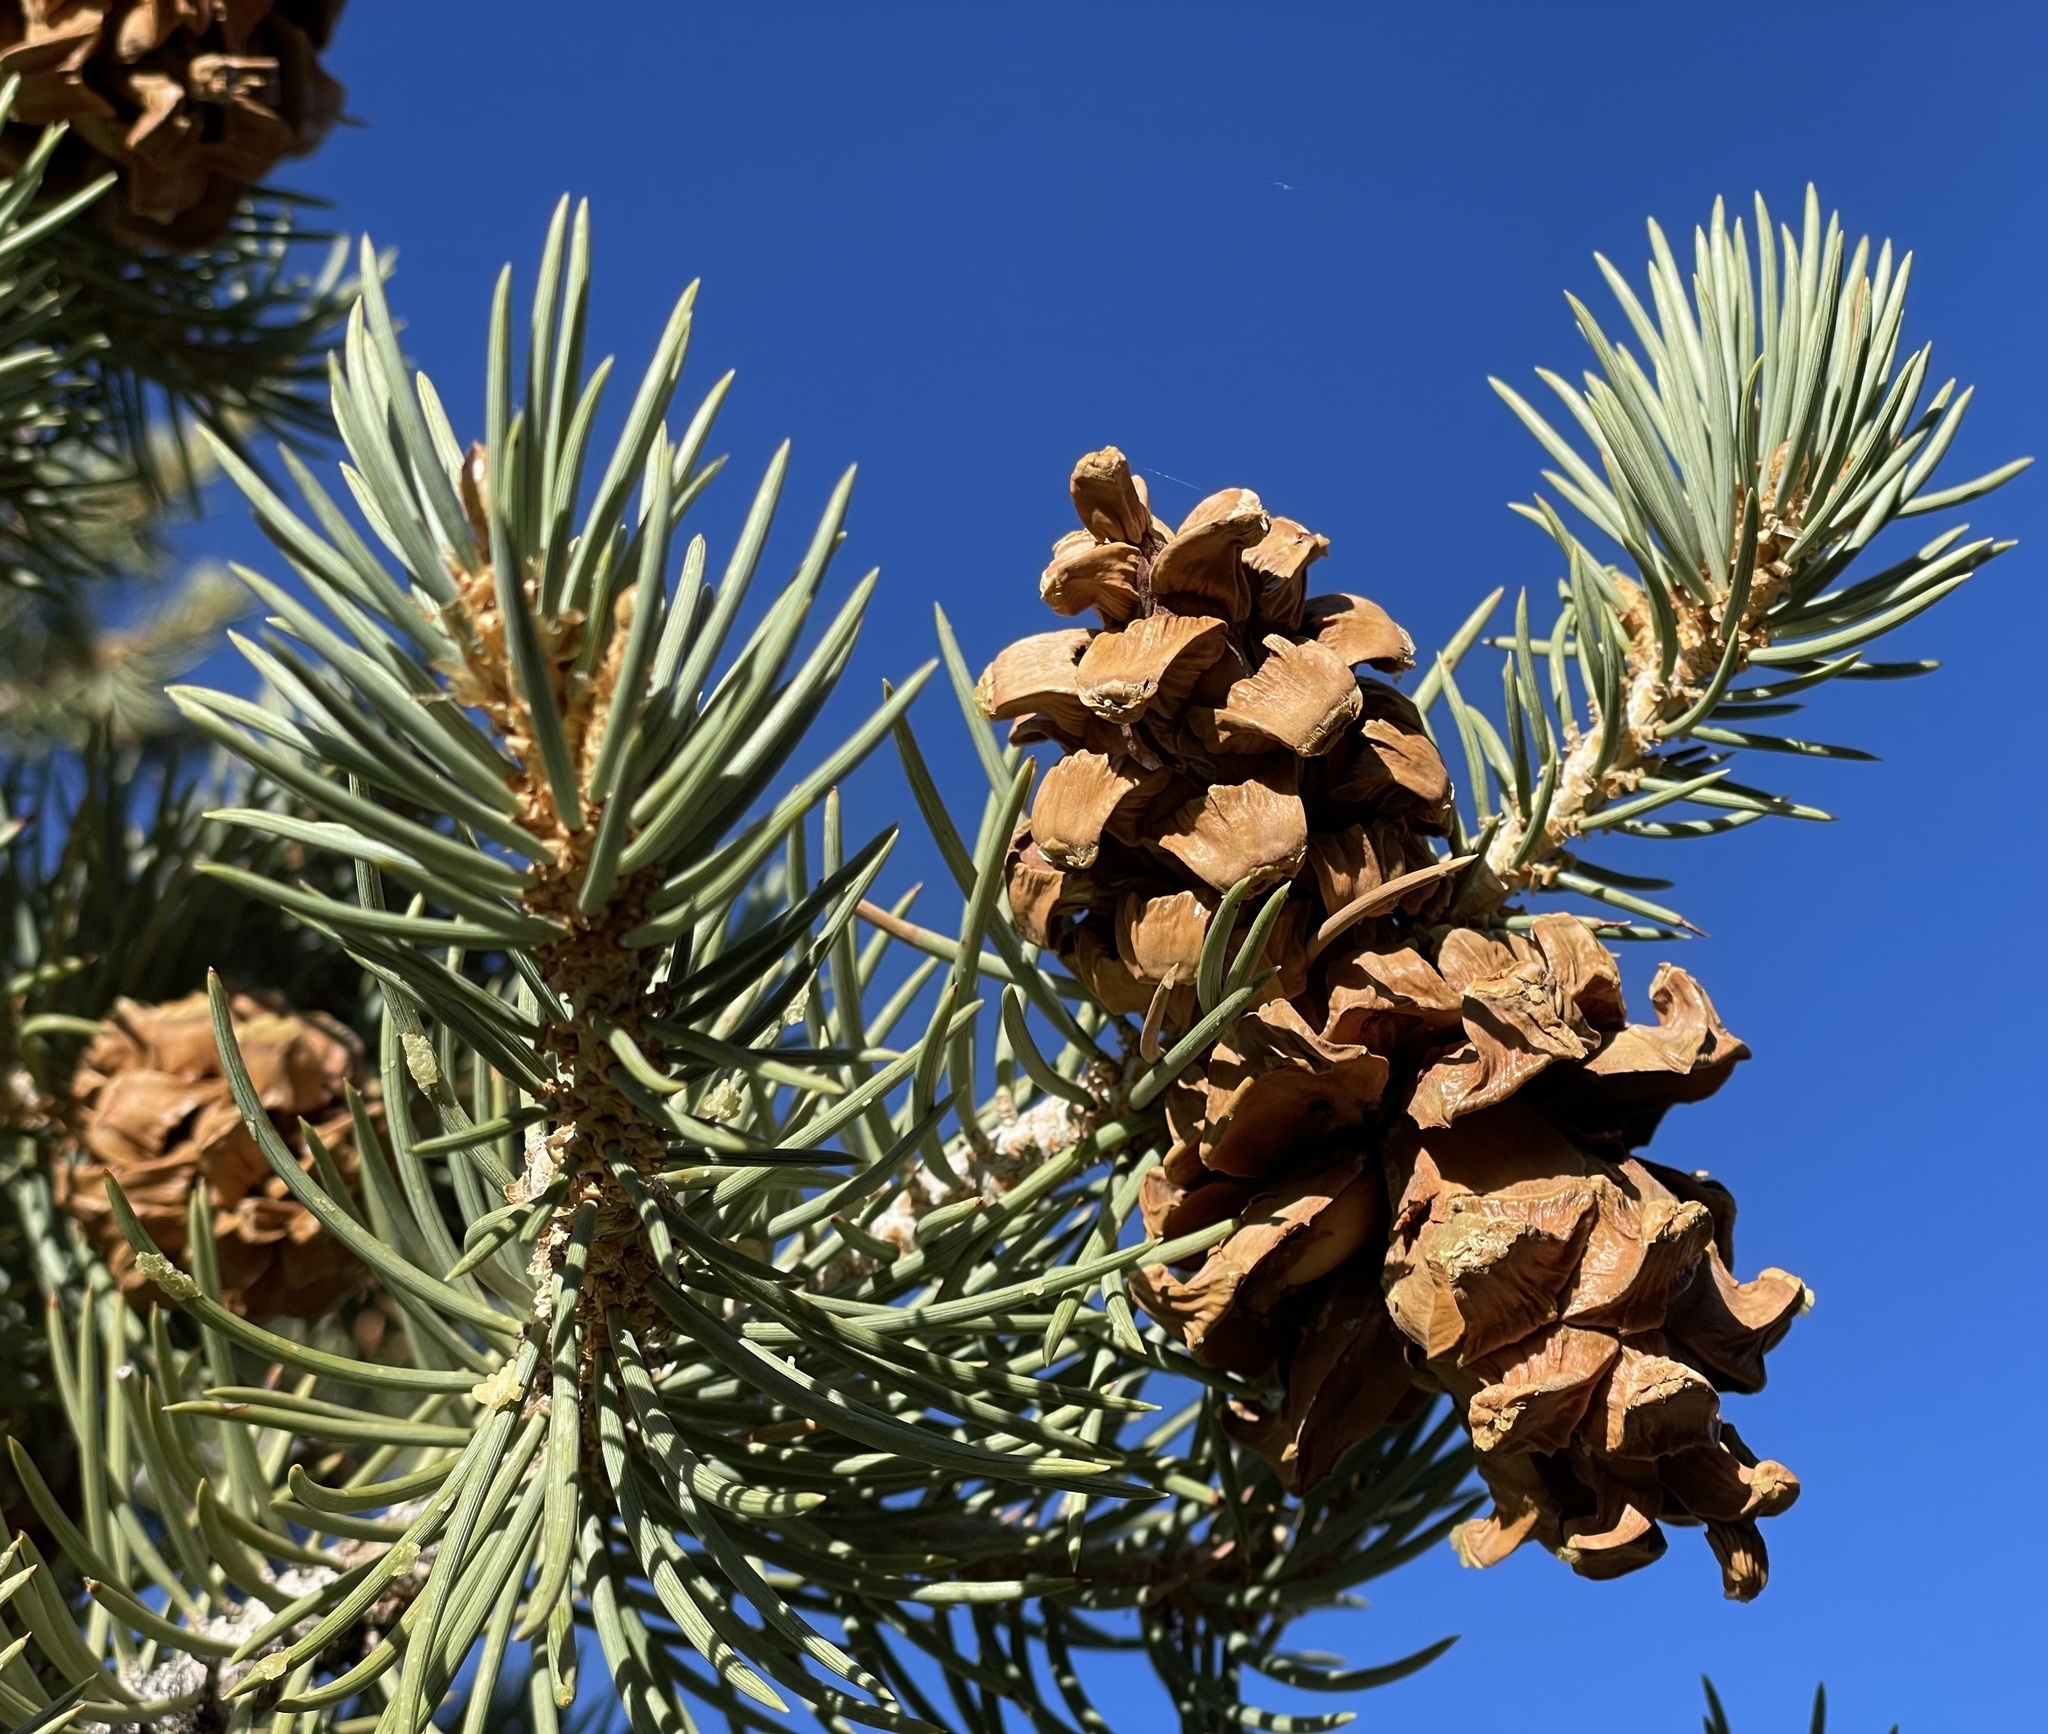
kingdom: Plantae
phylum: Tracheophyta
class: Pinopsida
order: Pinales
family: Pinaceae
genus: Pinus
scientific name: Pinus monophylla
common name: One-leaved nut pine
